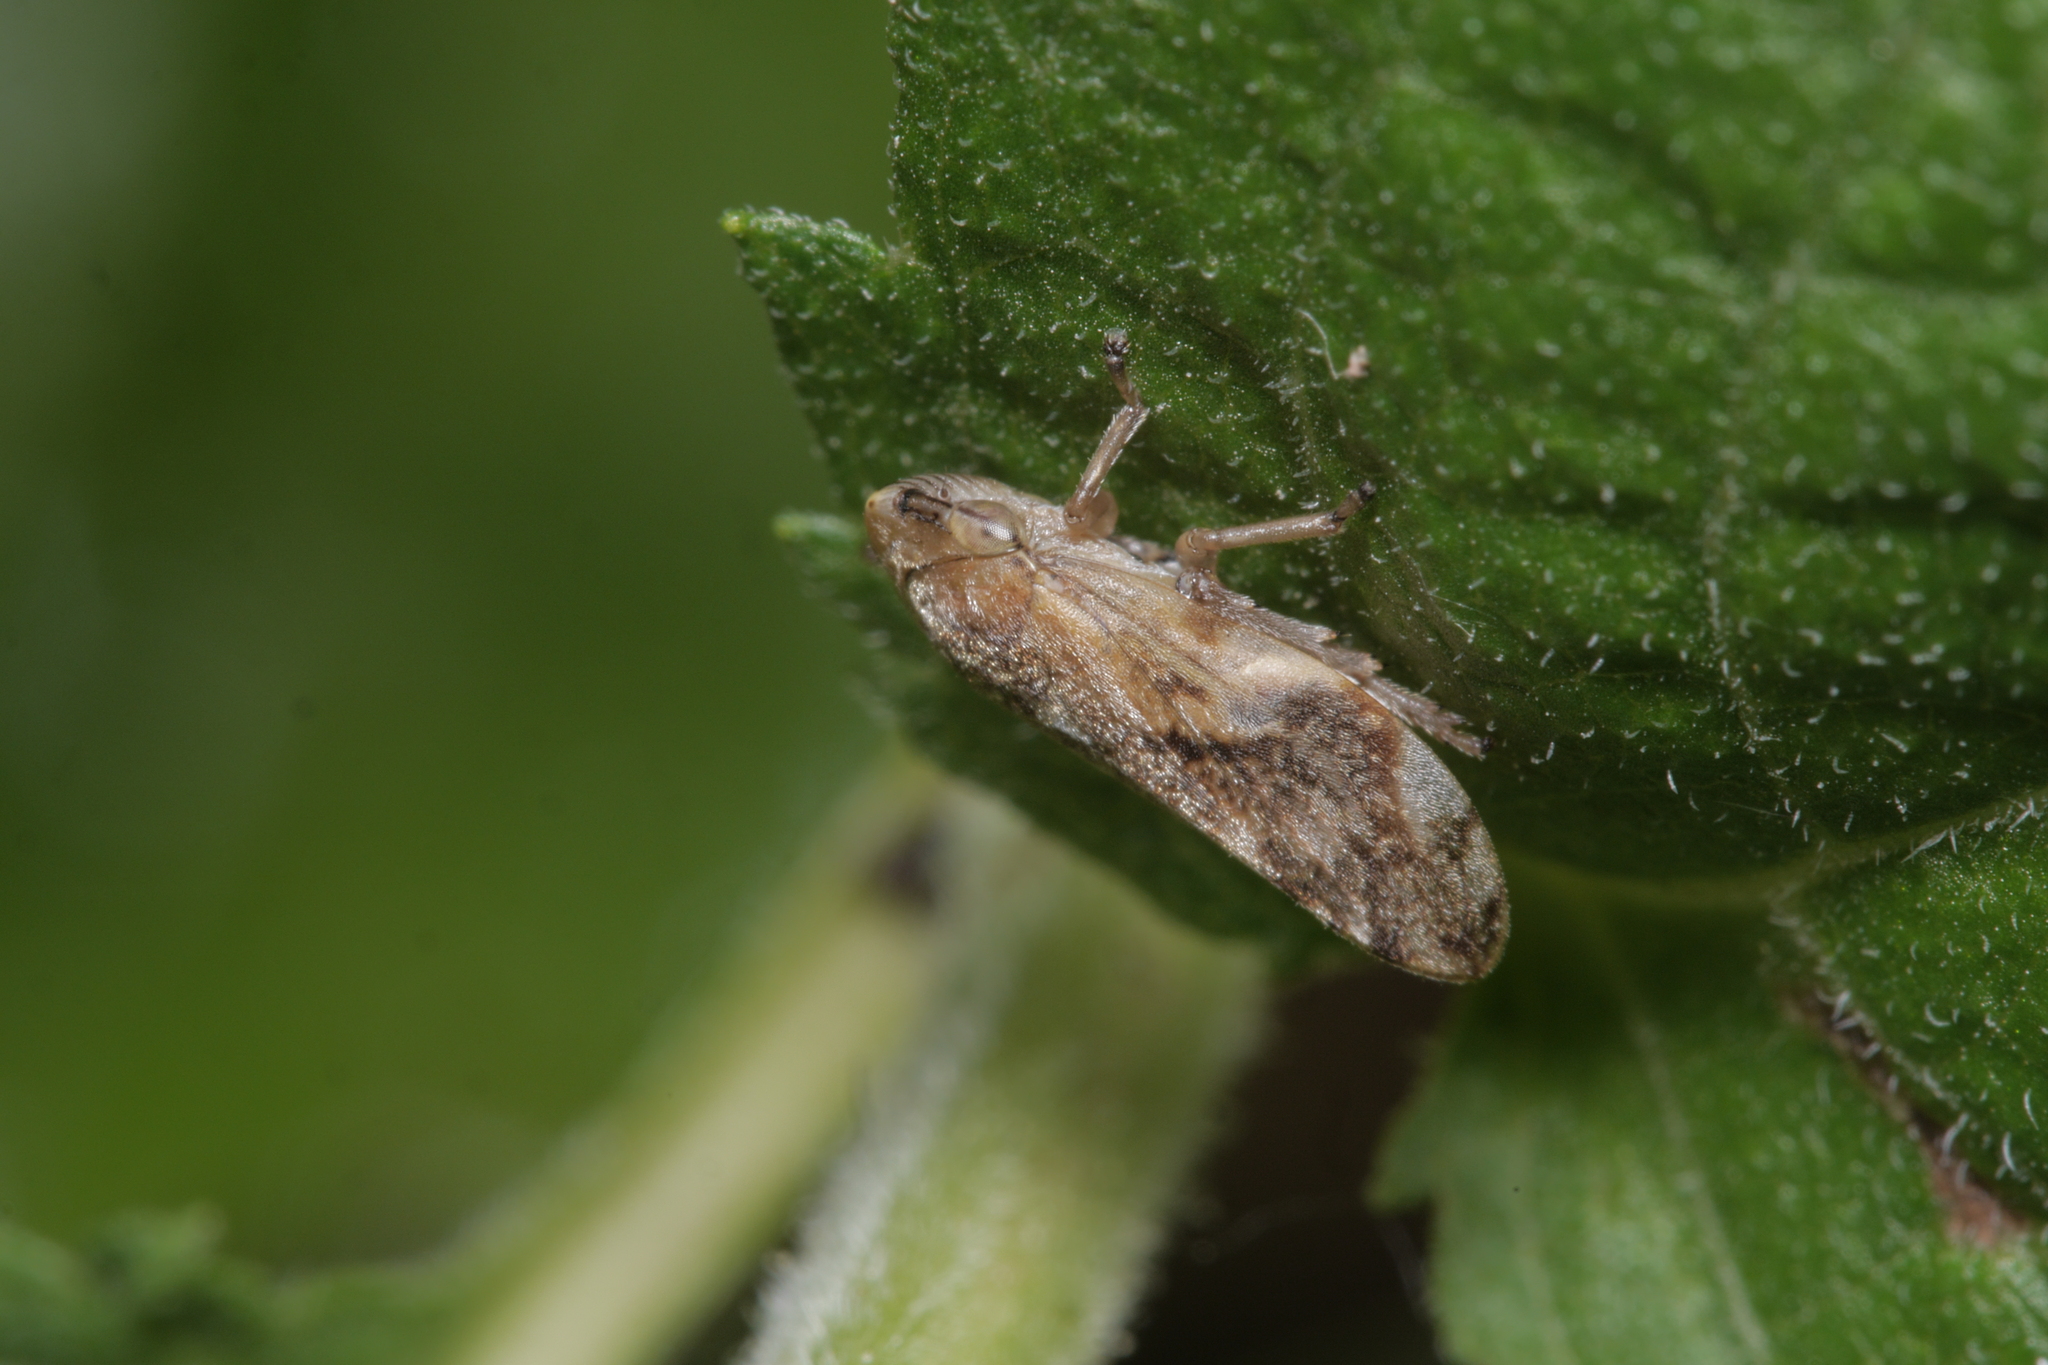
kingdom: Animalia
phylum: Arthropoda
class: Insecta
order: Hemiptera
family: Aphrophoridae
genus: Philaenus
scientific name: Philaenus spumarius
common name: Meadow spittlebug
